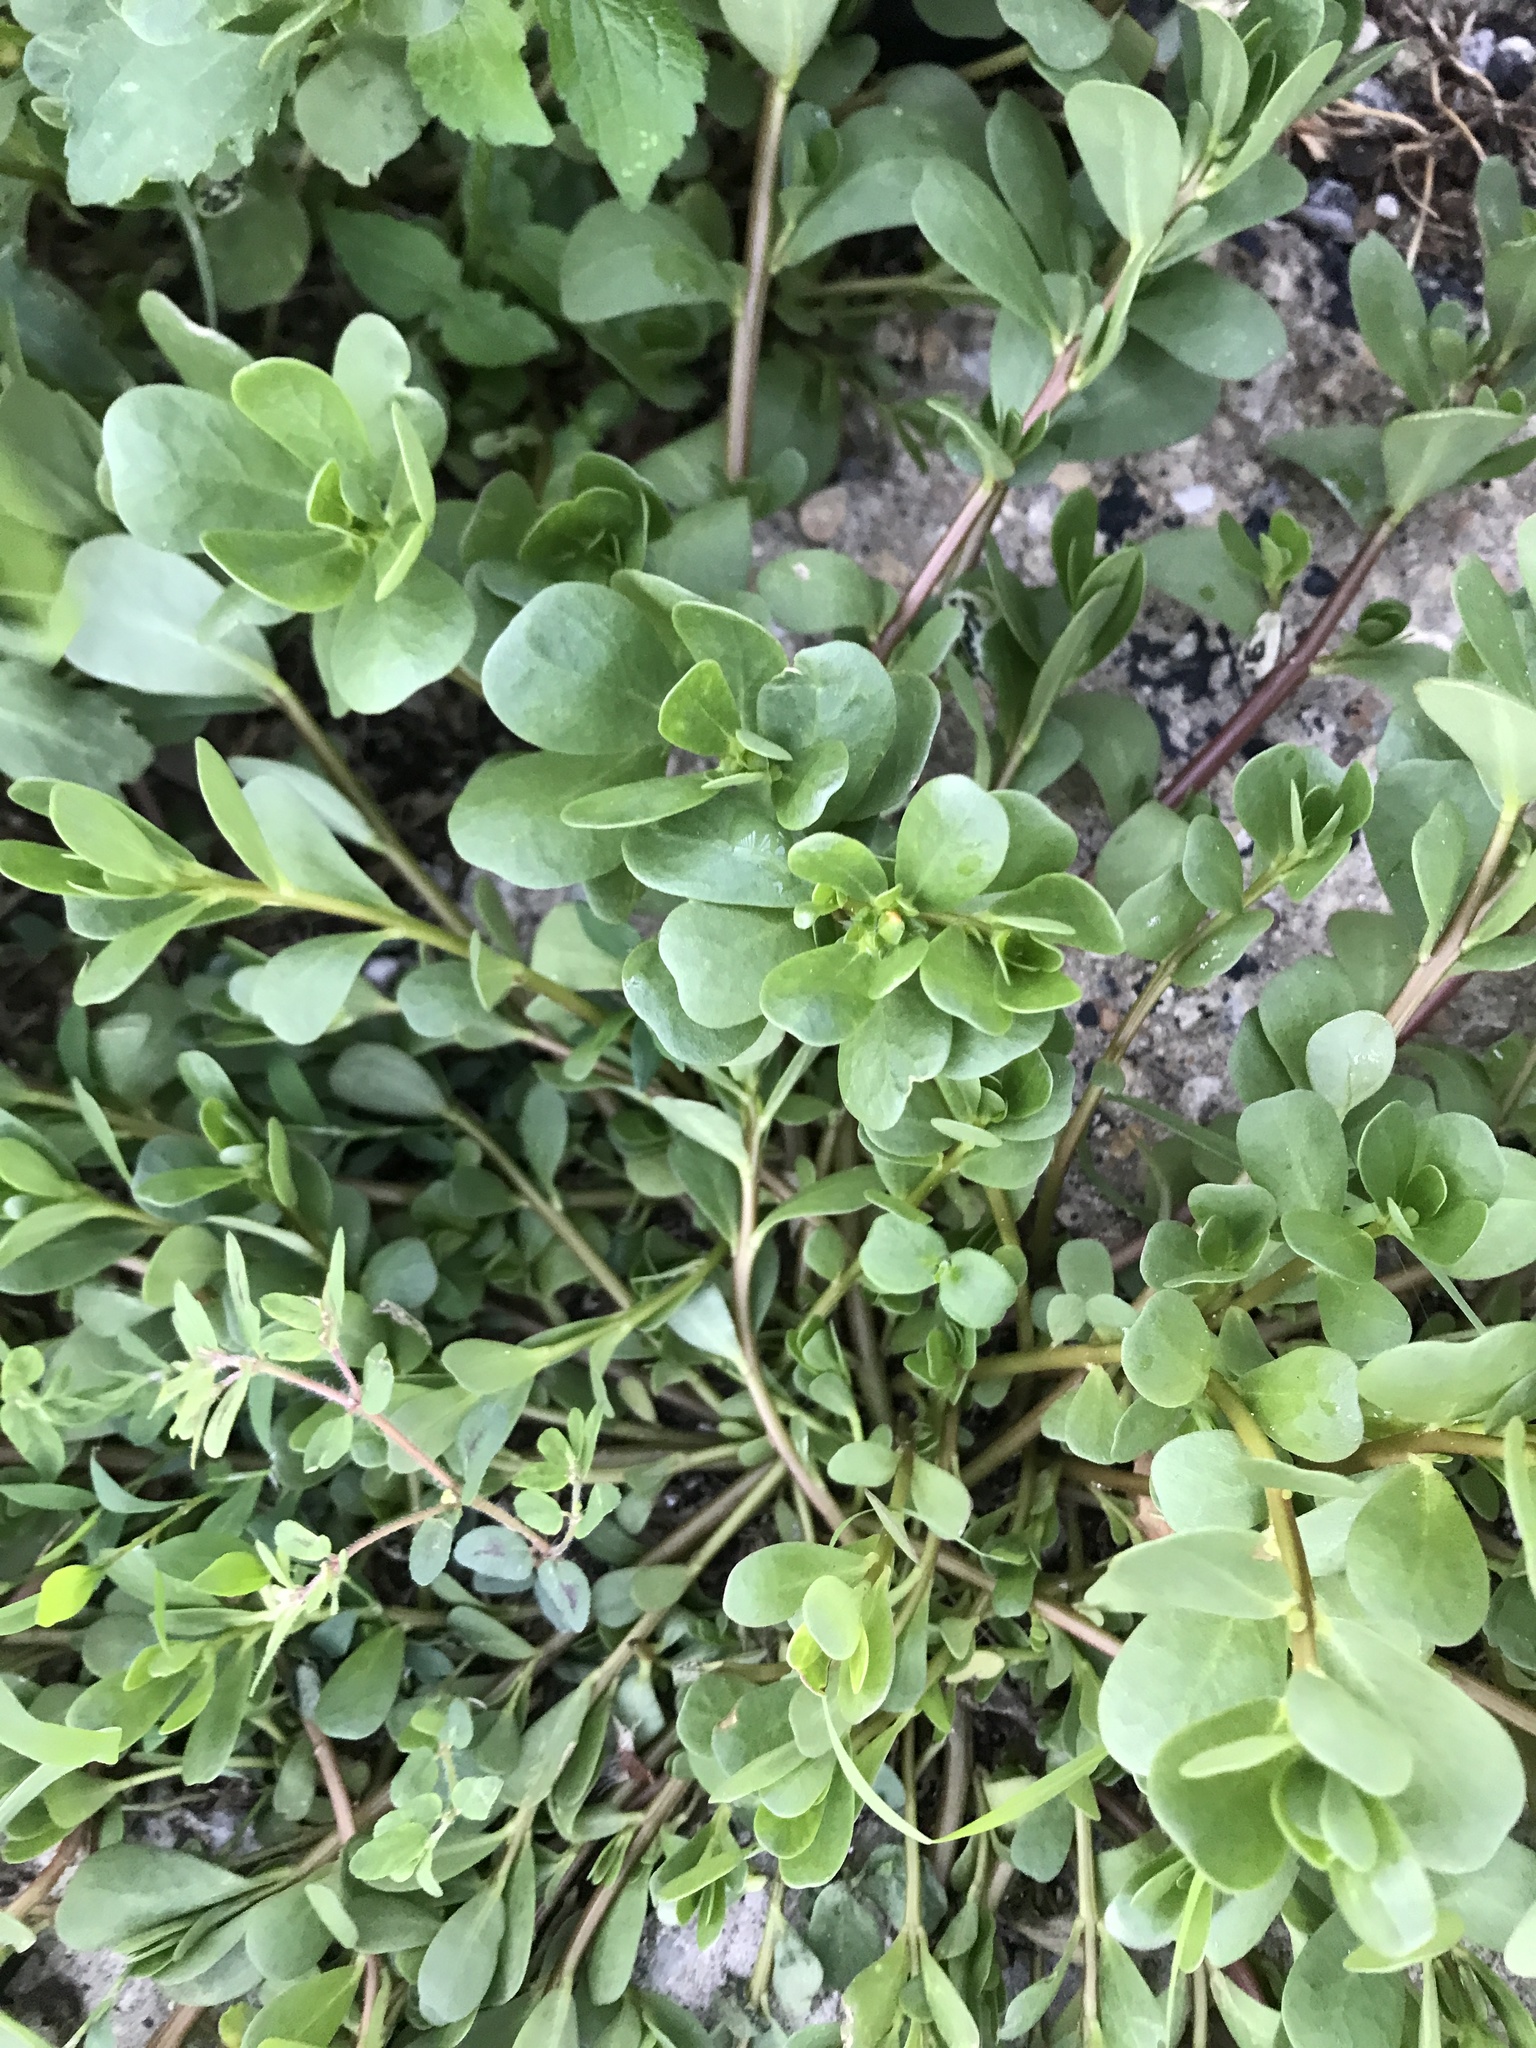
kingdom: Plantae
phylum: Tracheophyta
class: Magnoliopsida
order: Caryophyllales
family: Portulacaceae
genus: Portulaca
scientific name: Portulaca oleracea
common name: Common purslane
